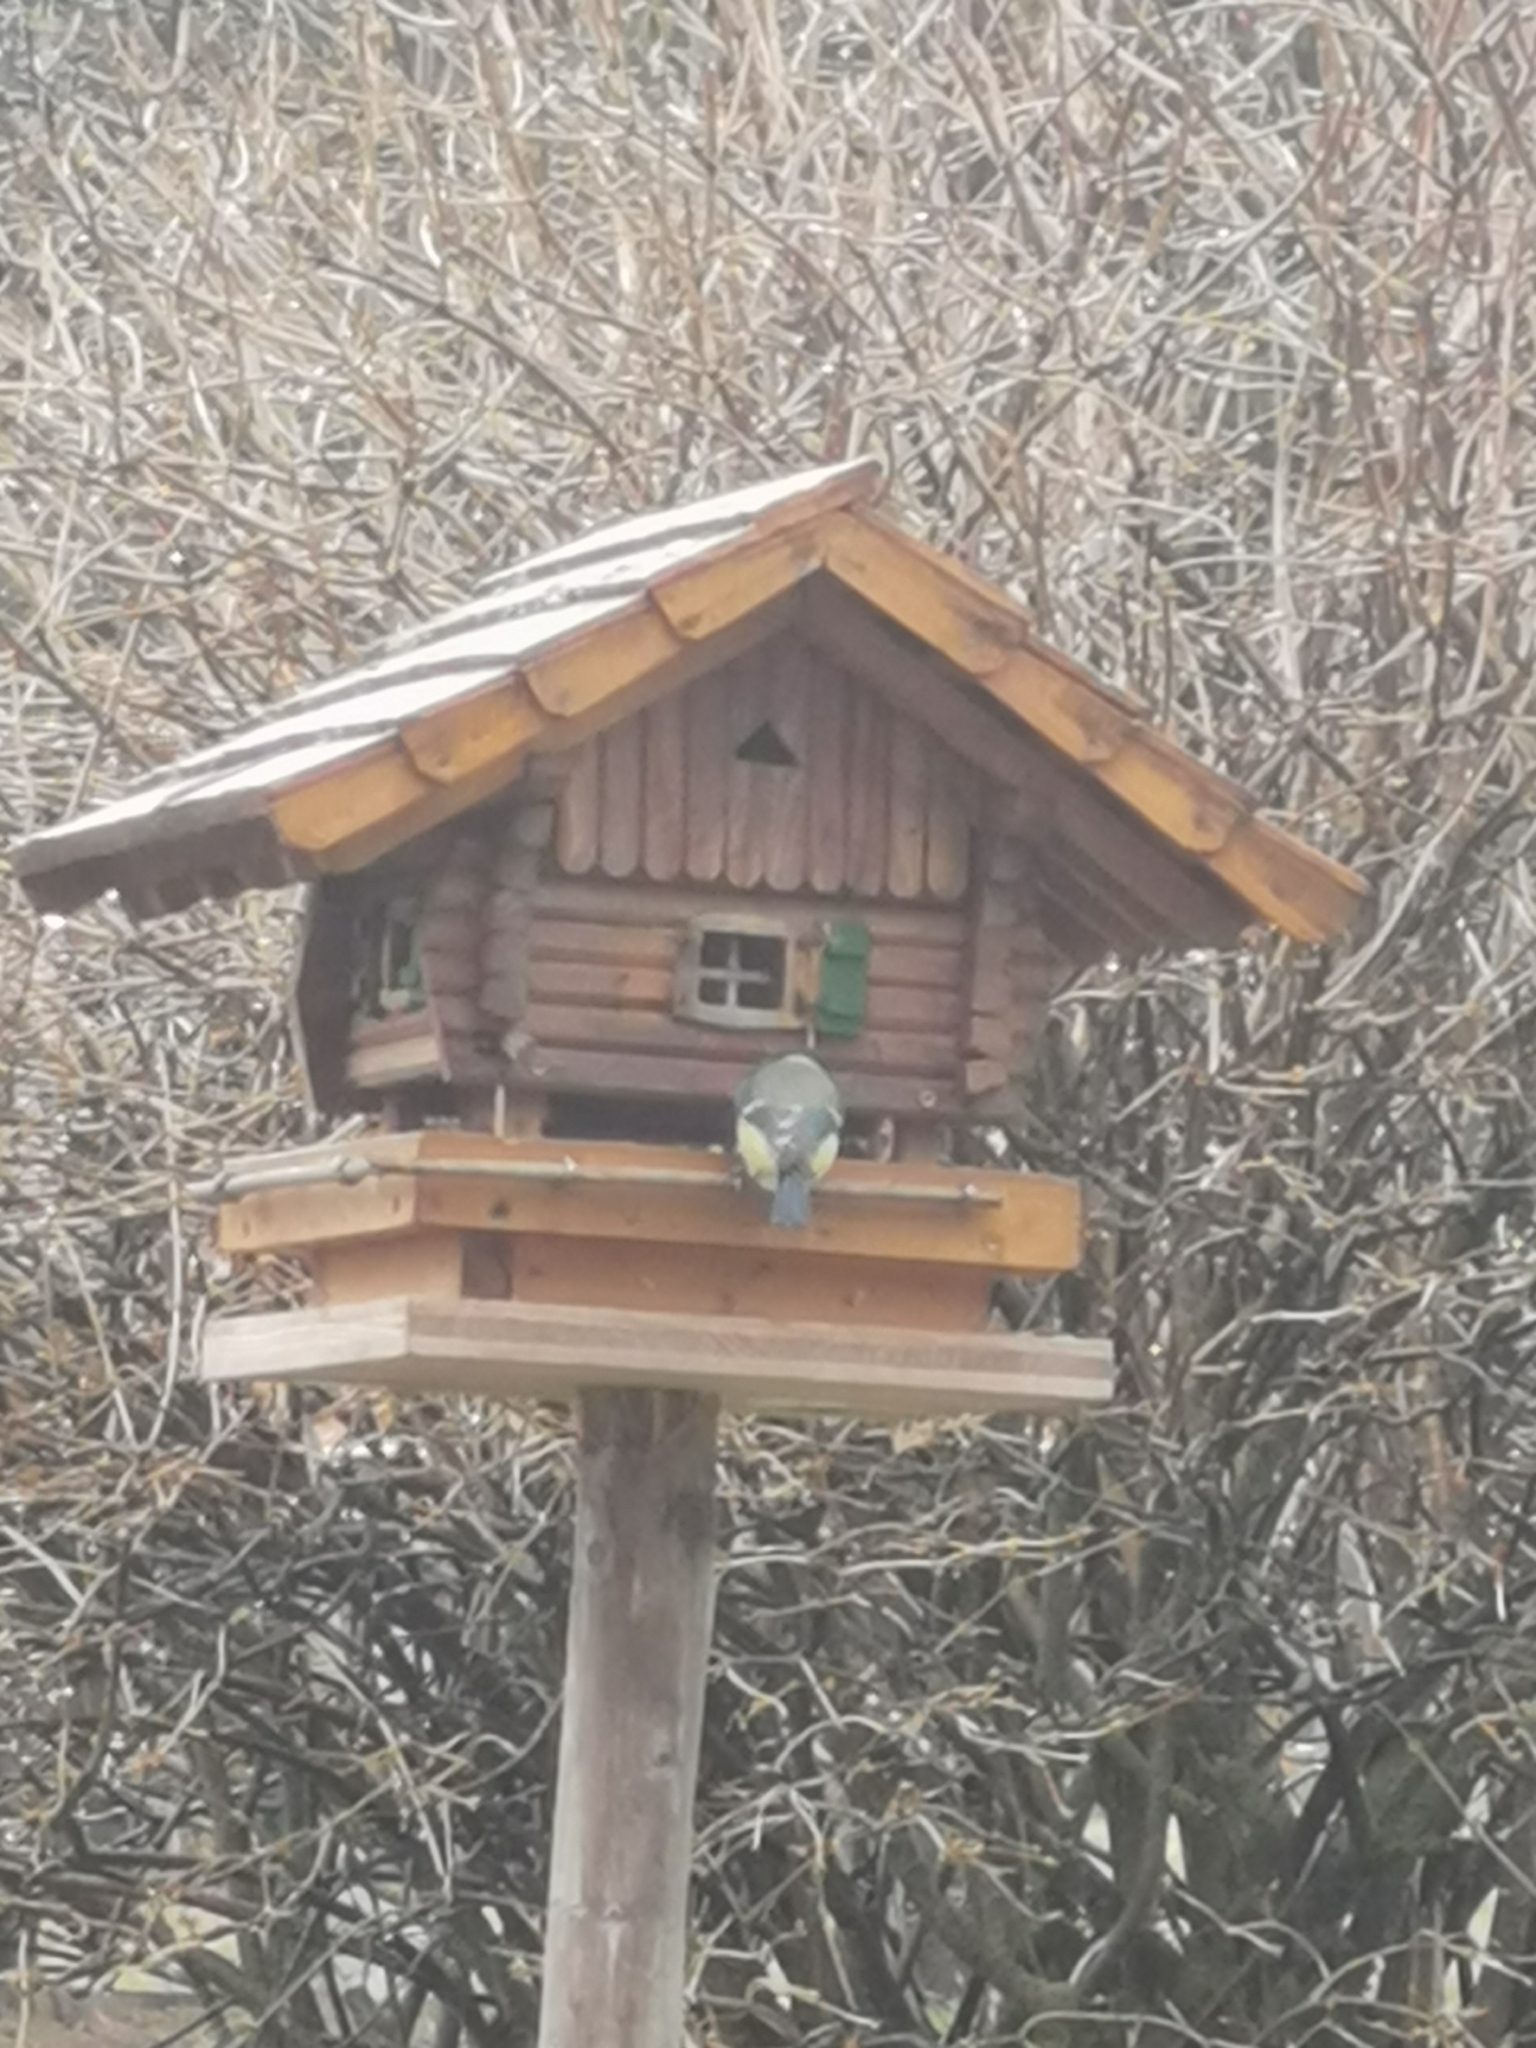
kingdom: Animalia
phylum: Chordata
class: Aves
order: Passeriformes
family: Paridae
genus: Cyanistes
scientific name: Cyanistes caeruleus
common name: Eurasian blue tit
